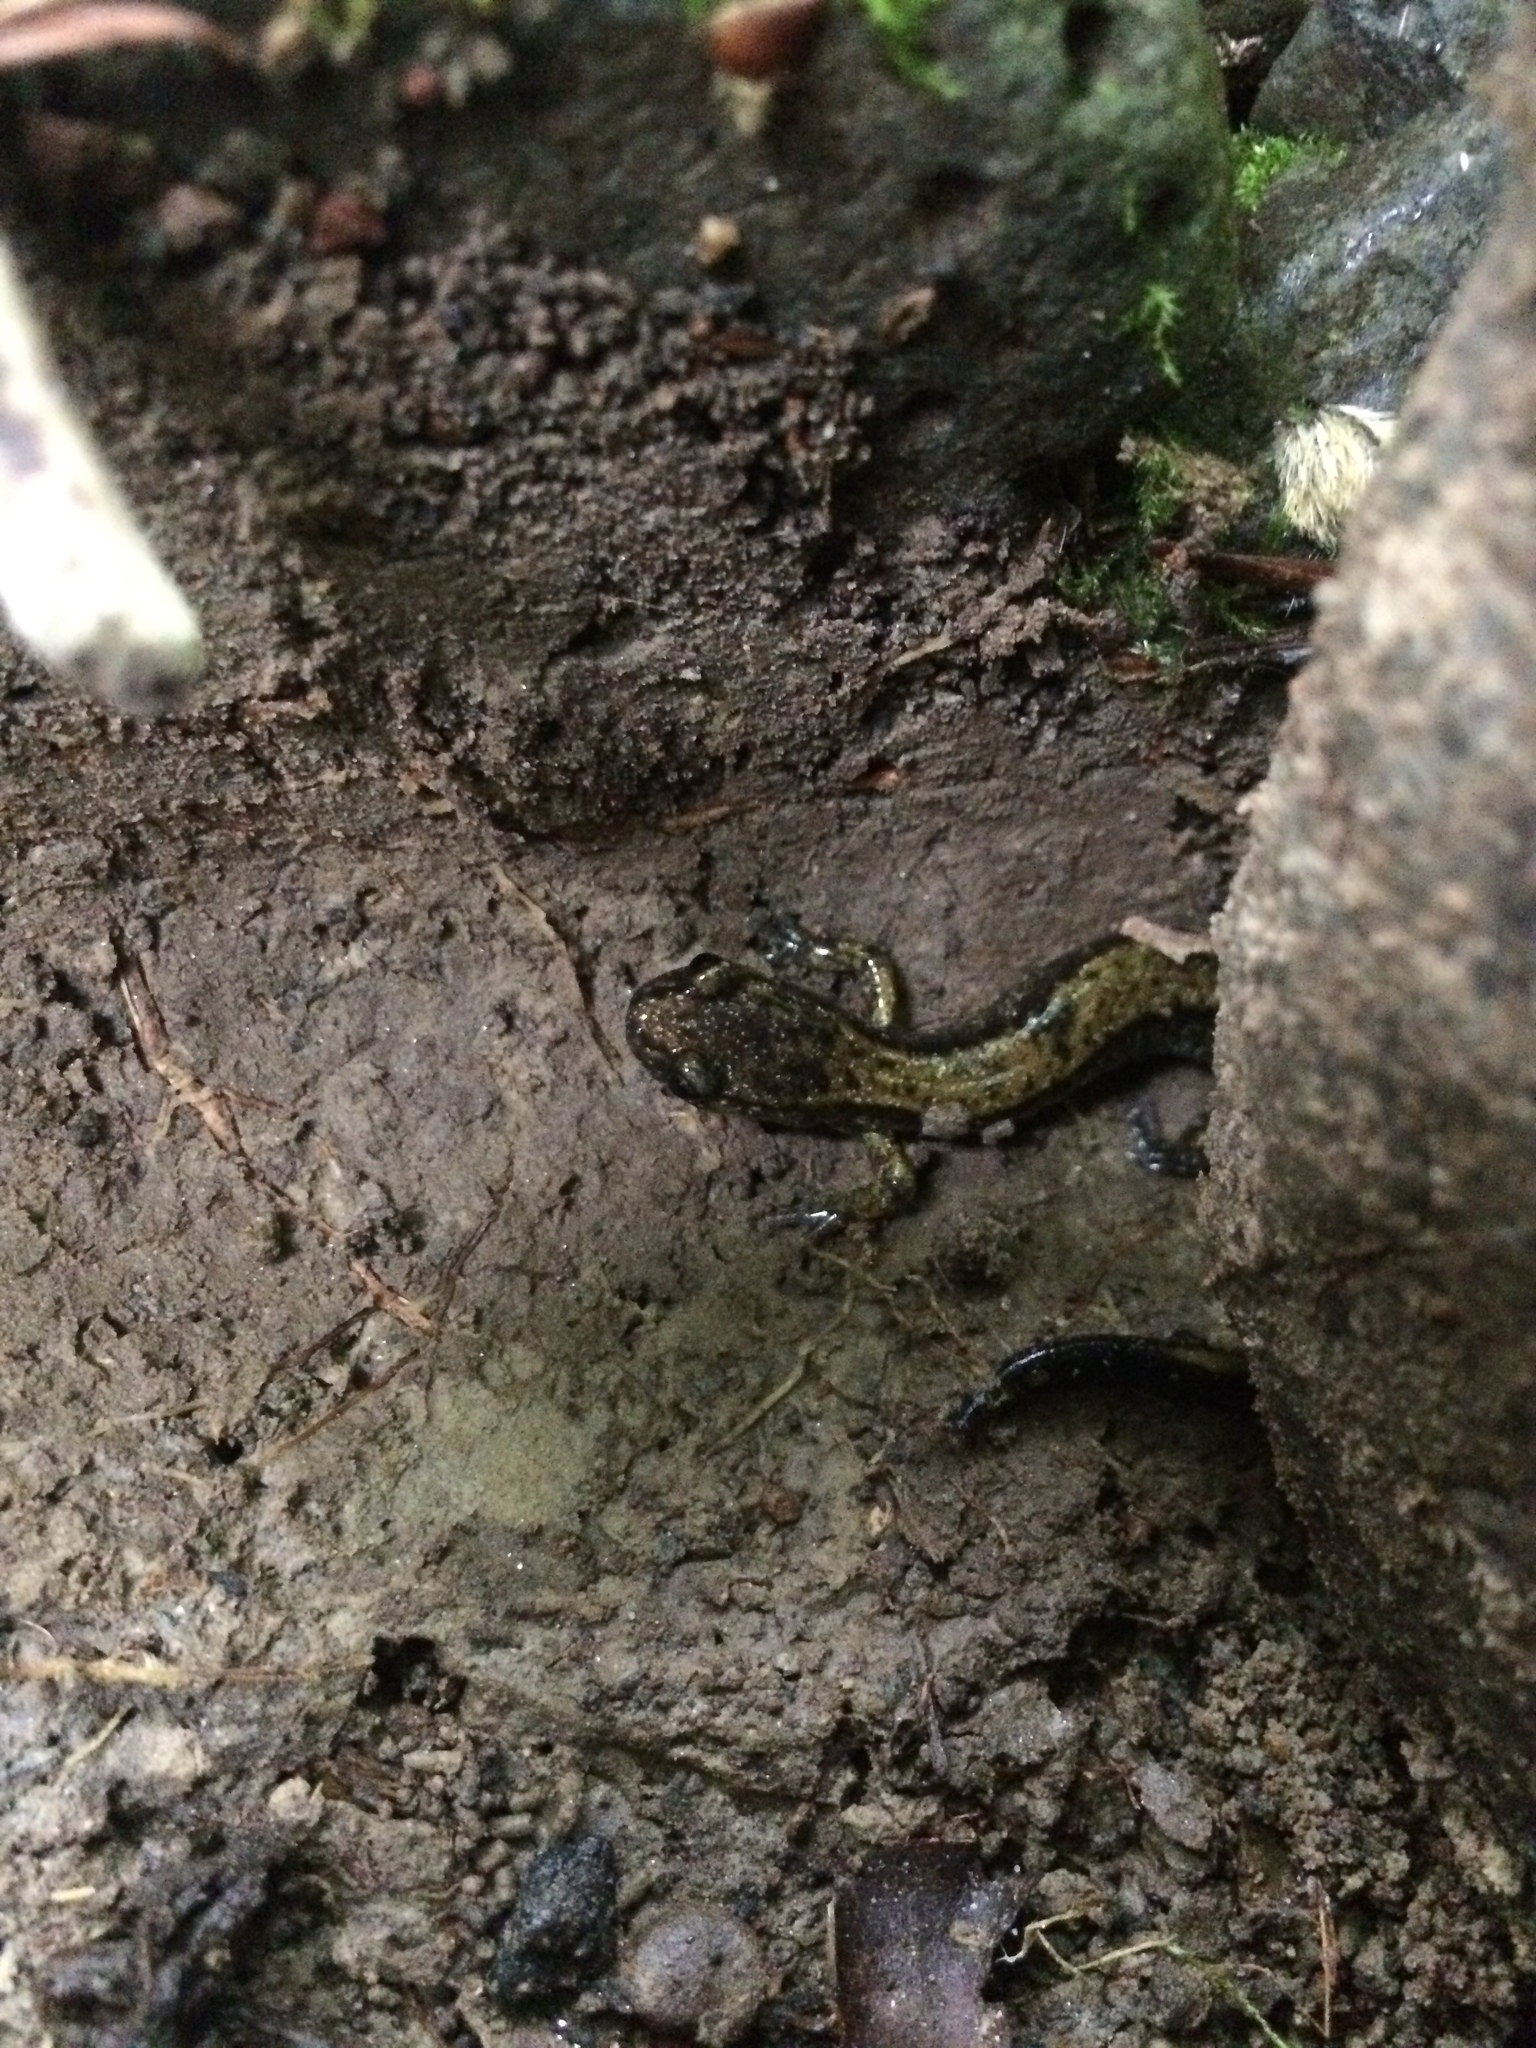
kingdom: Animalia
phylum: Chordata
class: Amphibia
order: Caudata
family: Plethodontidae
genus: Plethodon
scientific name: Plethodon dunni
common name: Dunn's salamander
